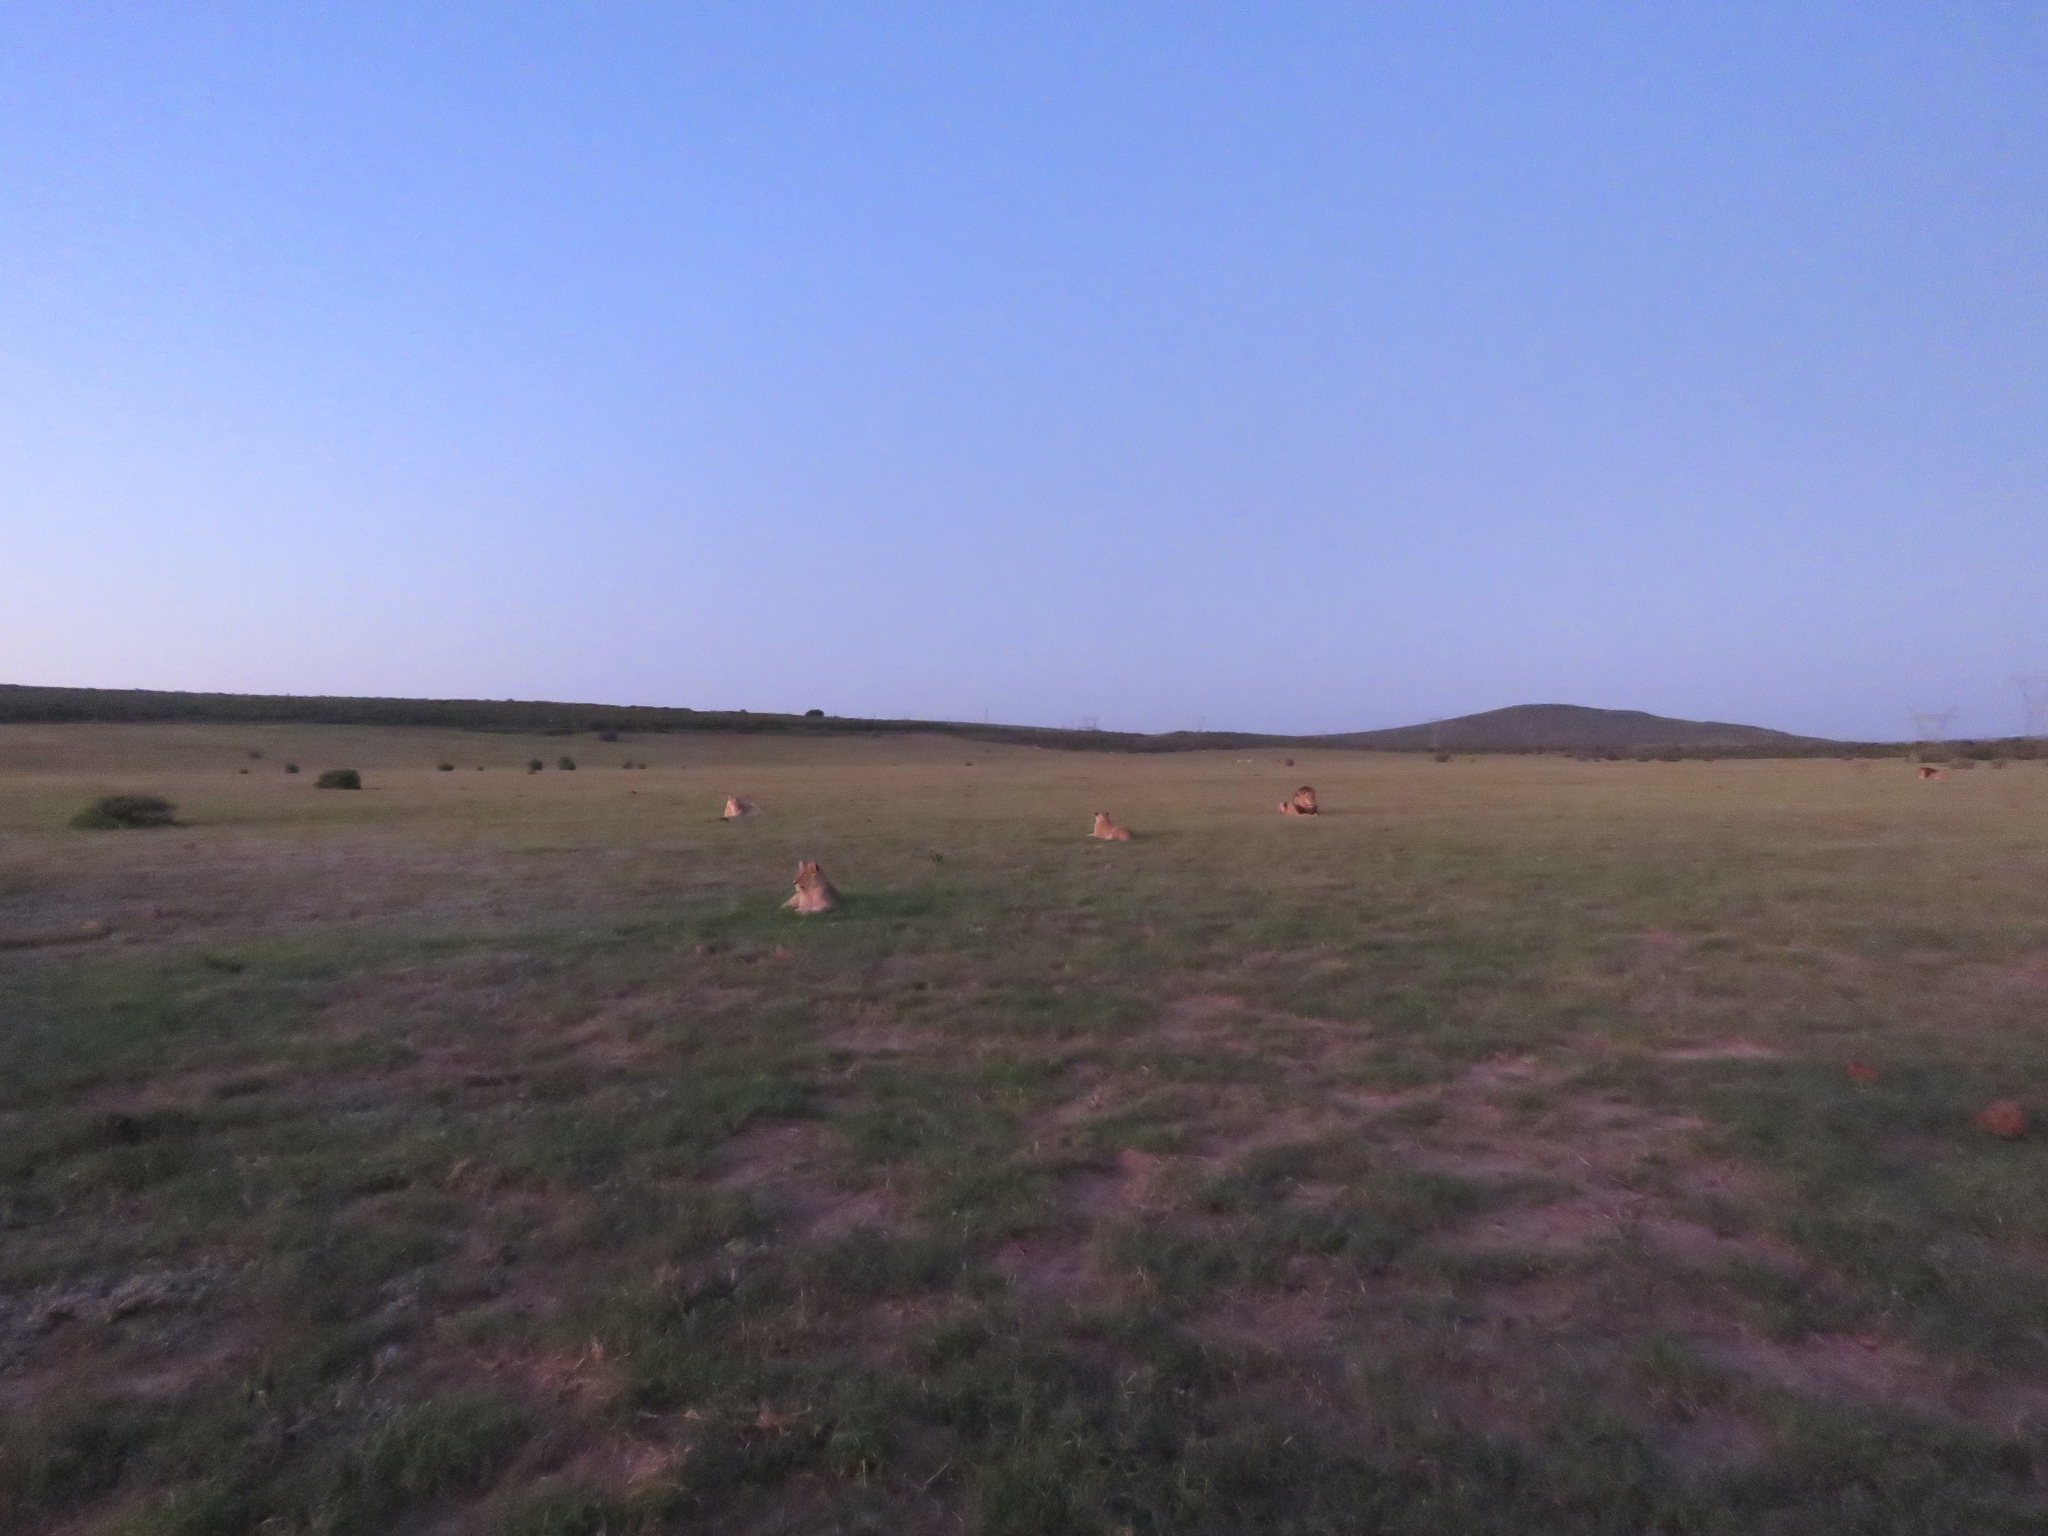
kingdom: Animalia
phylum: Chordata
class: Mammalia
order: Carnivora
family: Felidae
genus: Panthera
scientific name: Panthera leo
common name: Lion
